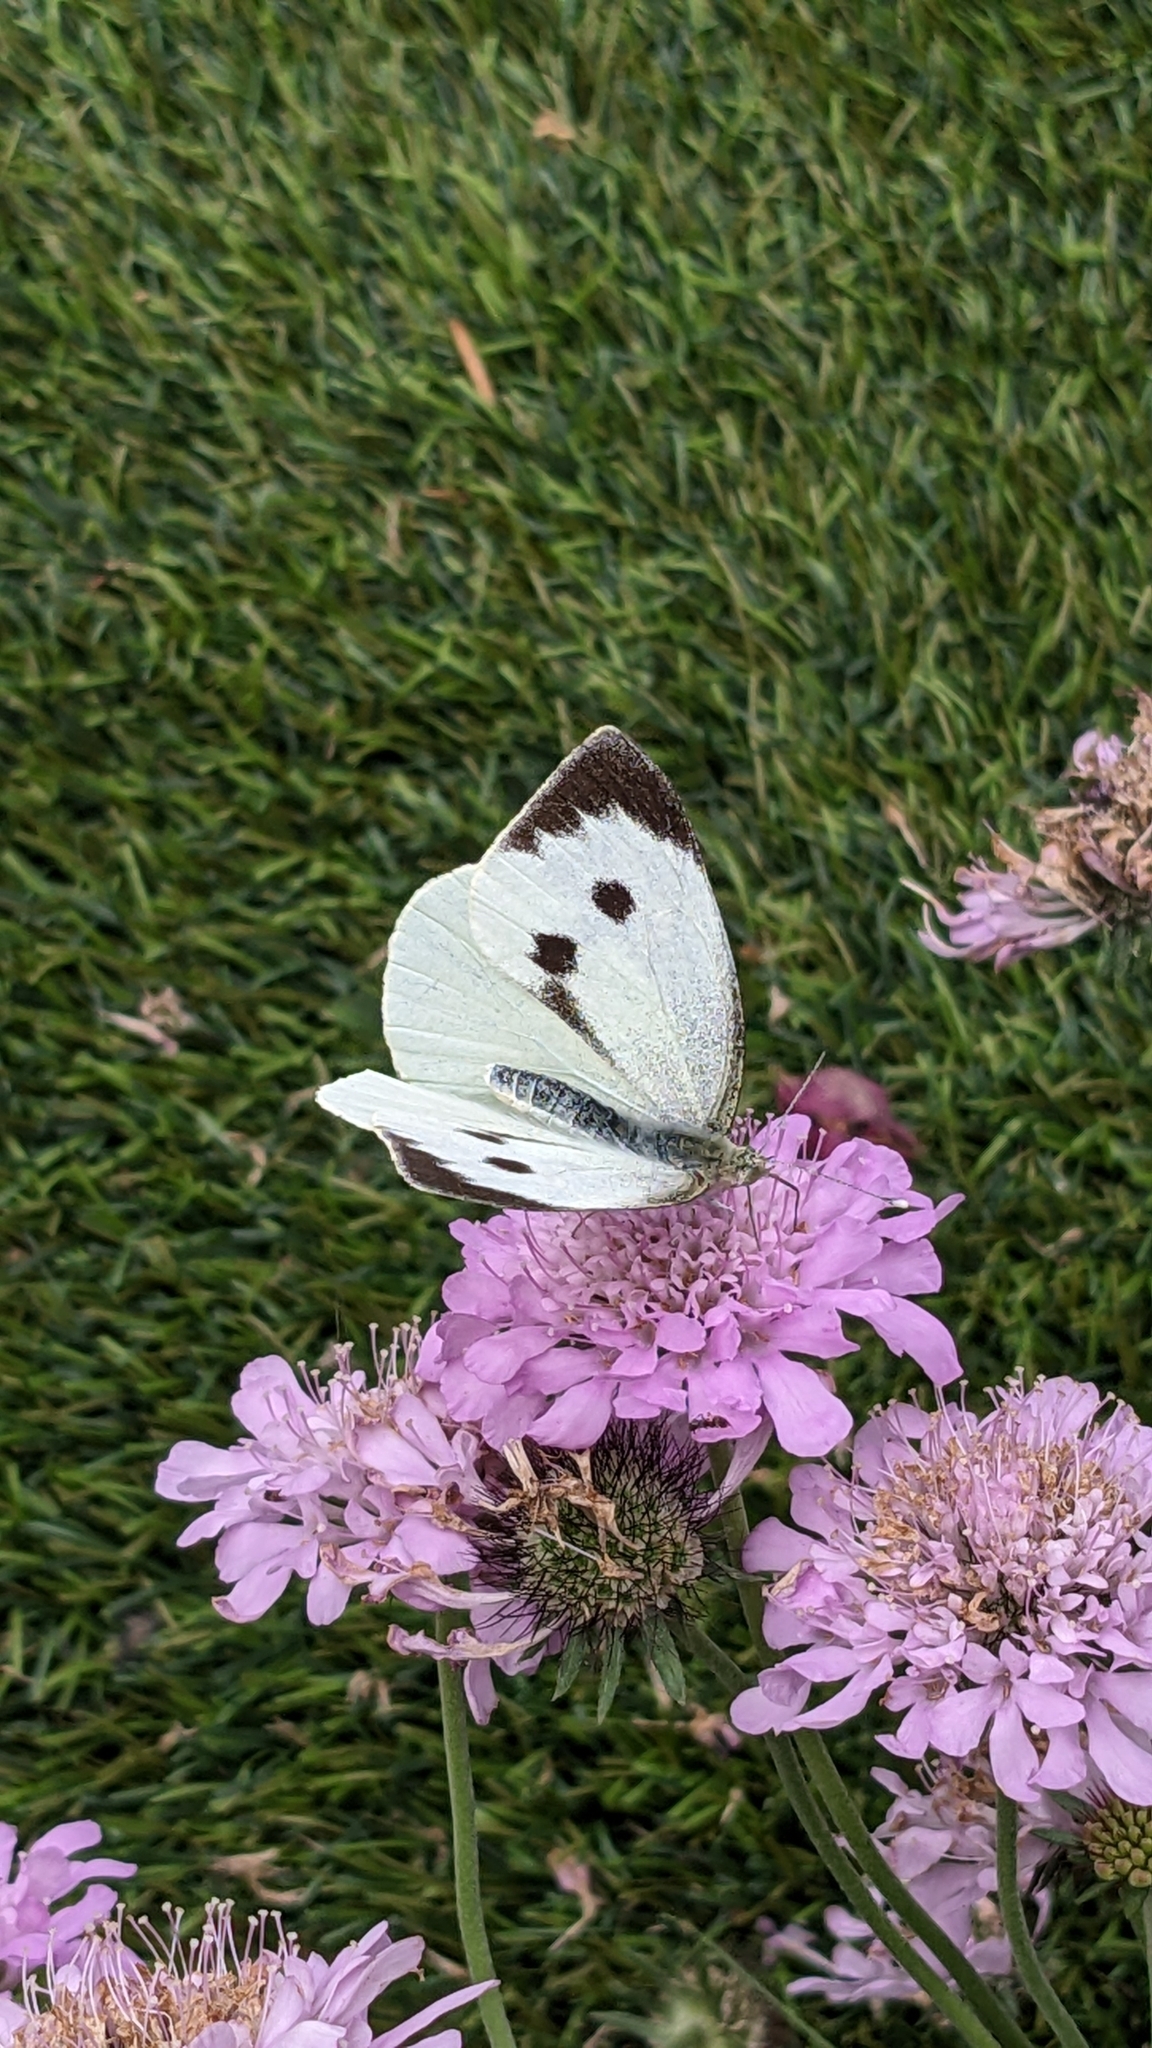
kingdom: Animalia
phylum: Arthropoda
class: Insecta
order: Lepidoptera
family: Pieridae
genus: Pieris
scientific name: Pieris brassicae
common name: Large white
